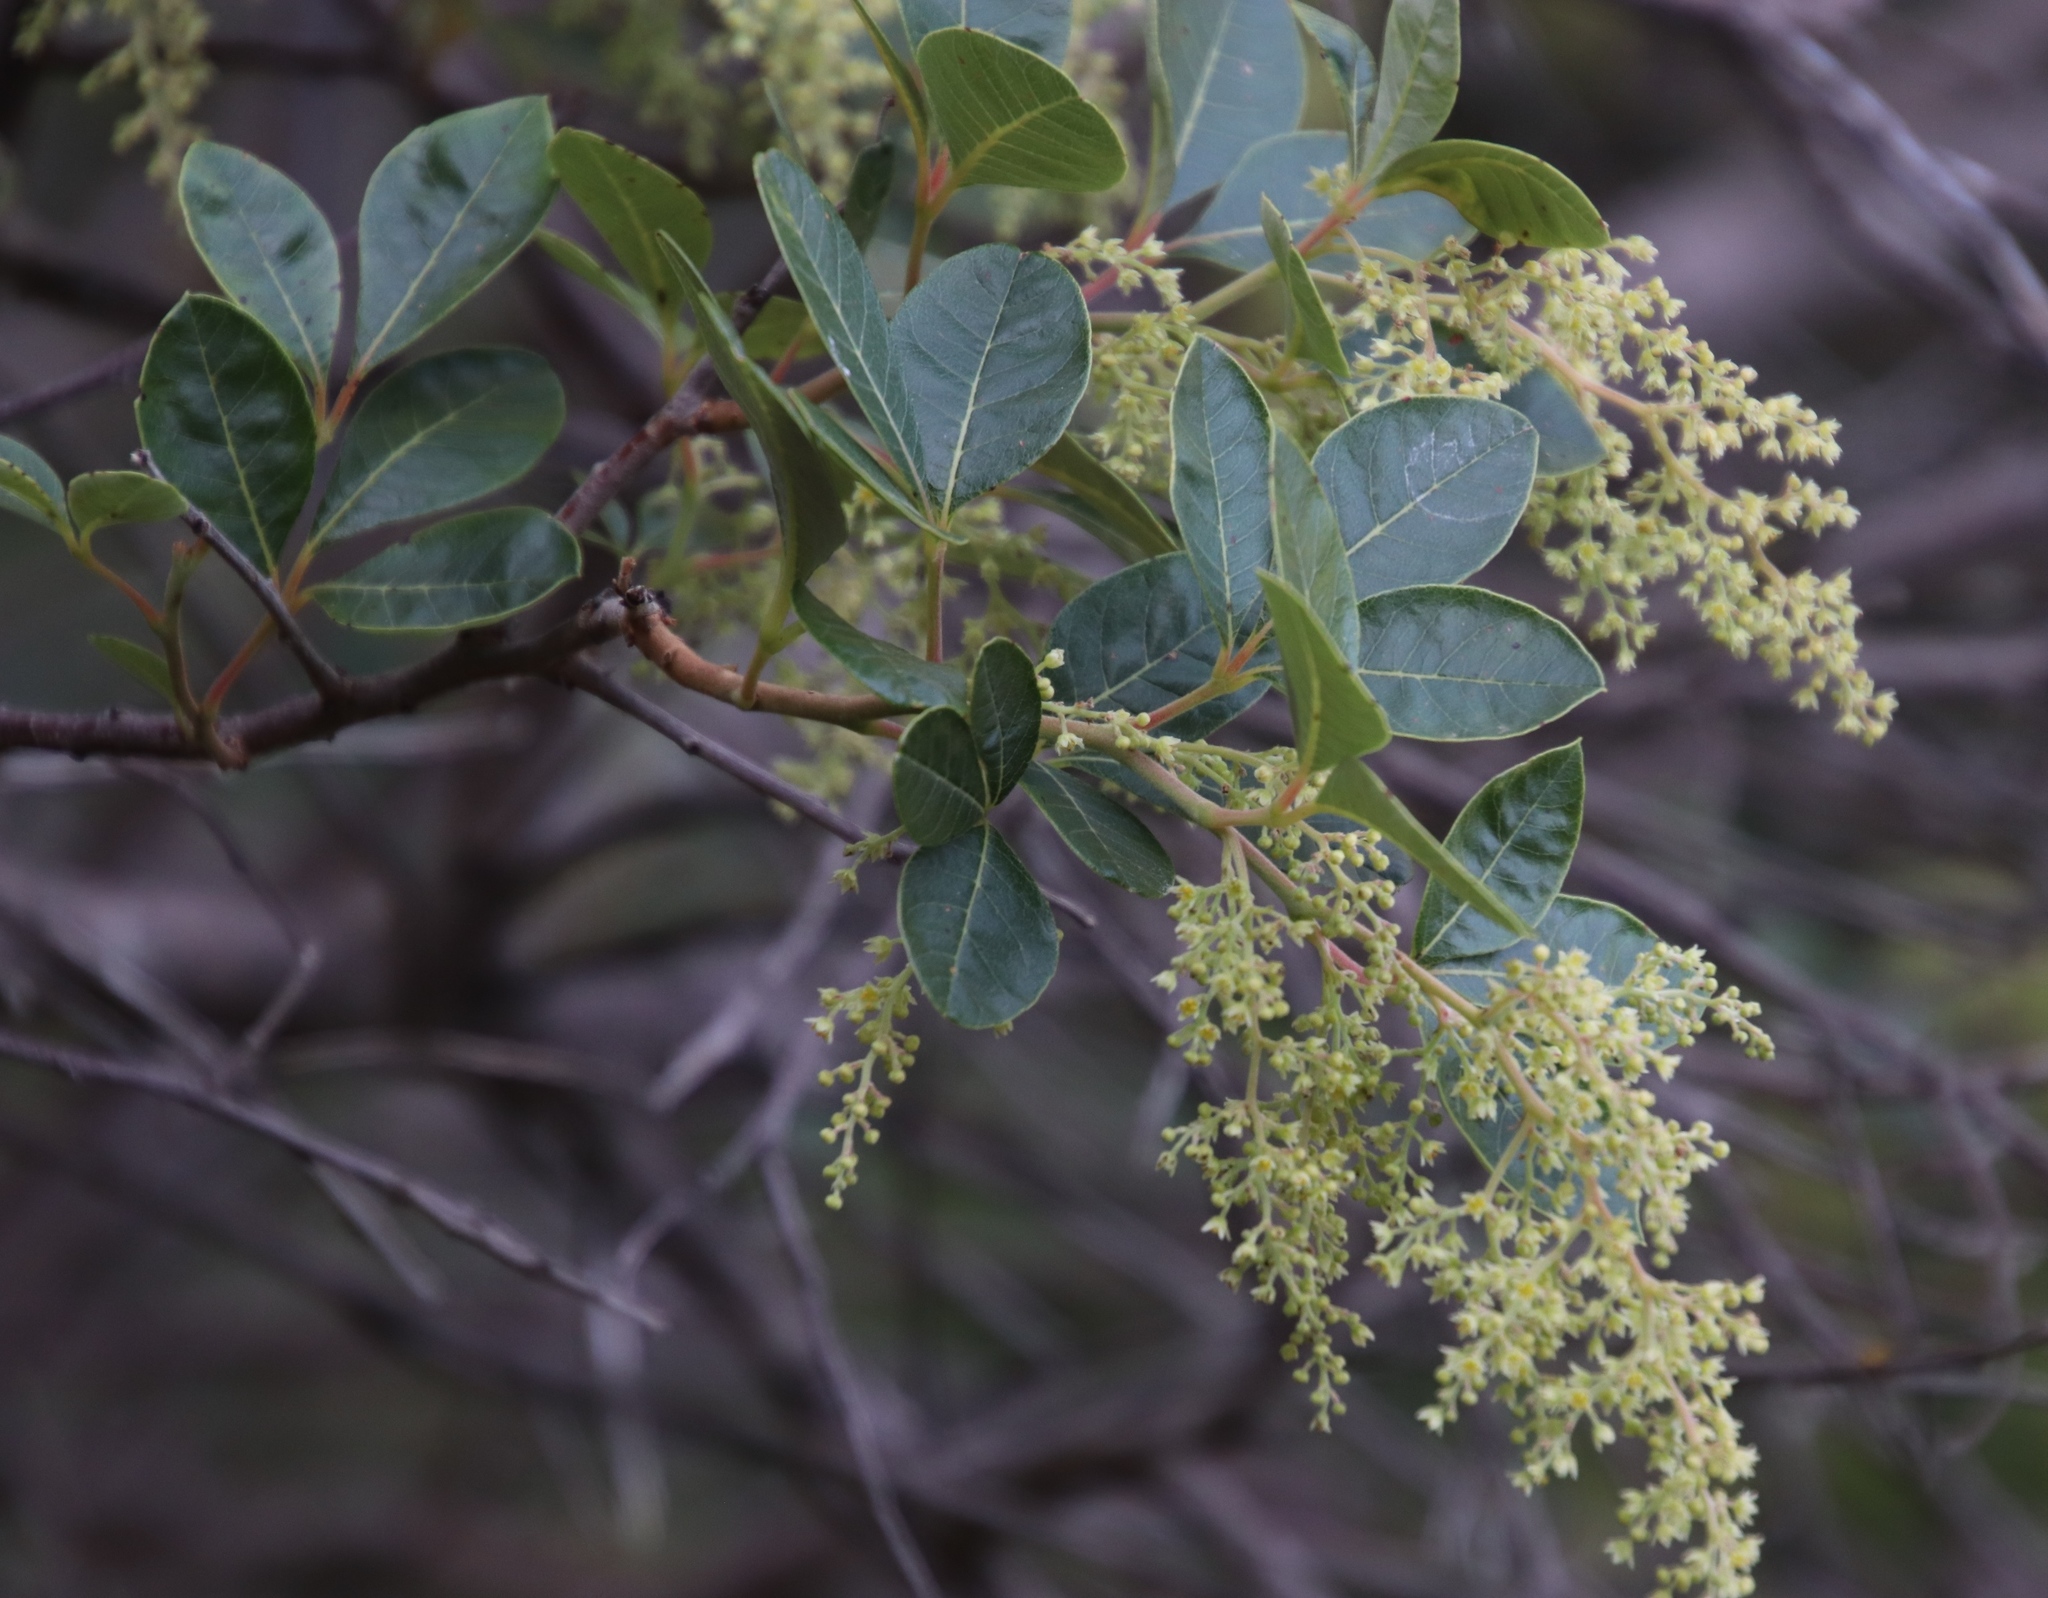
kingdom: Plantae
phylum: Tracheophyta
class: Magnoliopsida
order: Sapindales
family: Anacardiaceae
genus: Searsia
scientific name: Searsia tomentosa
